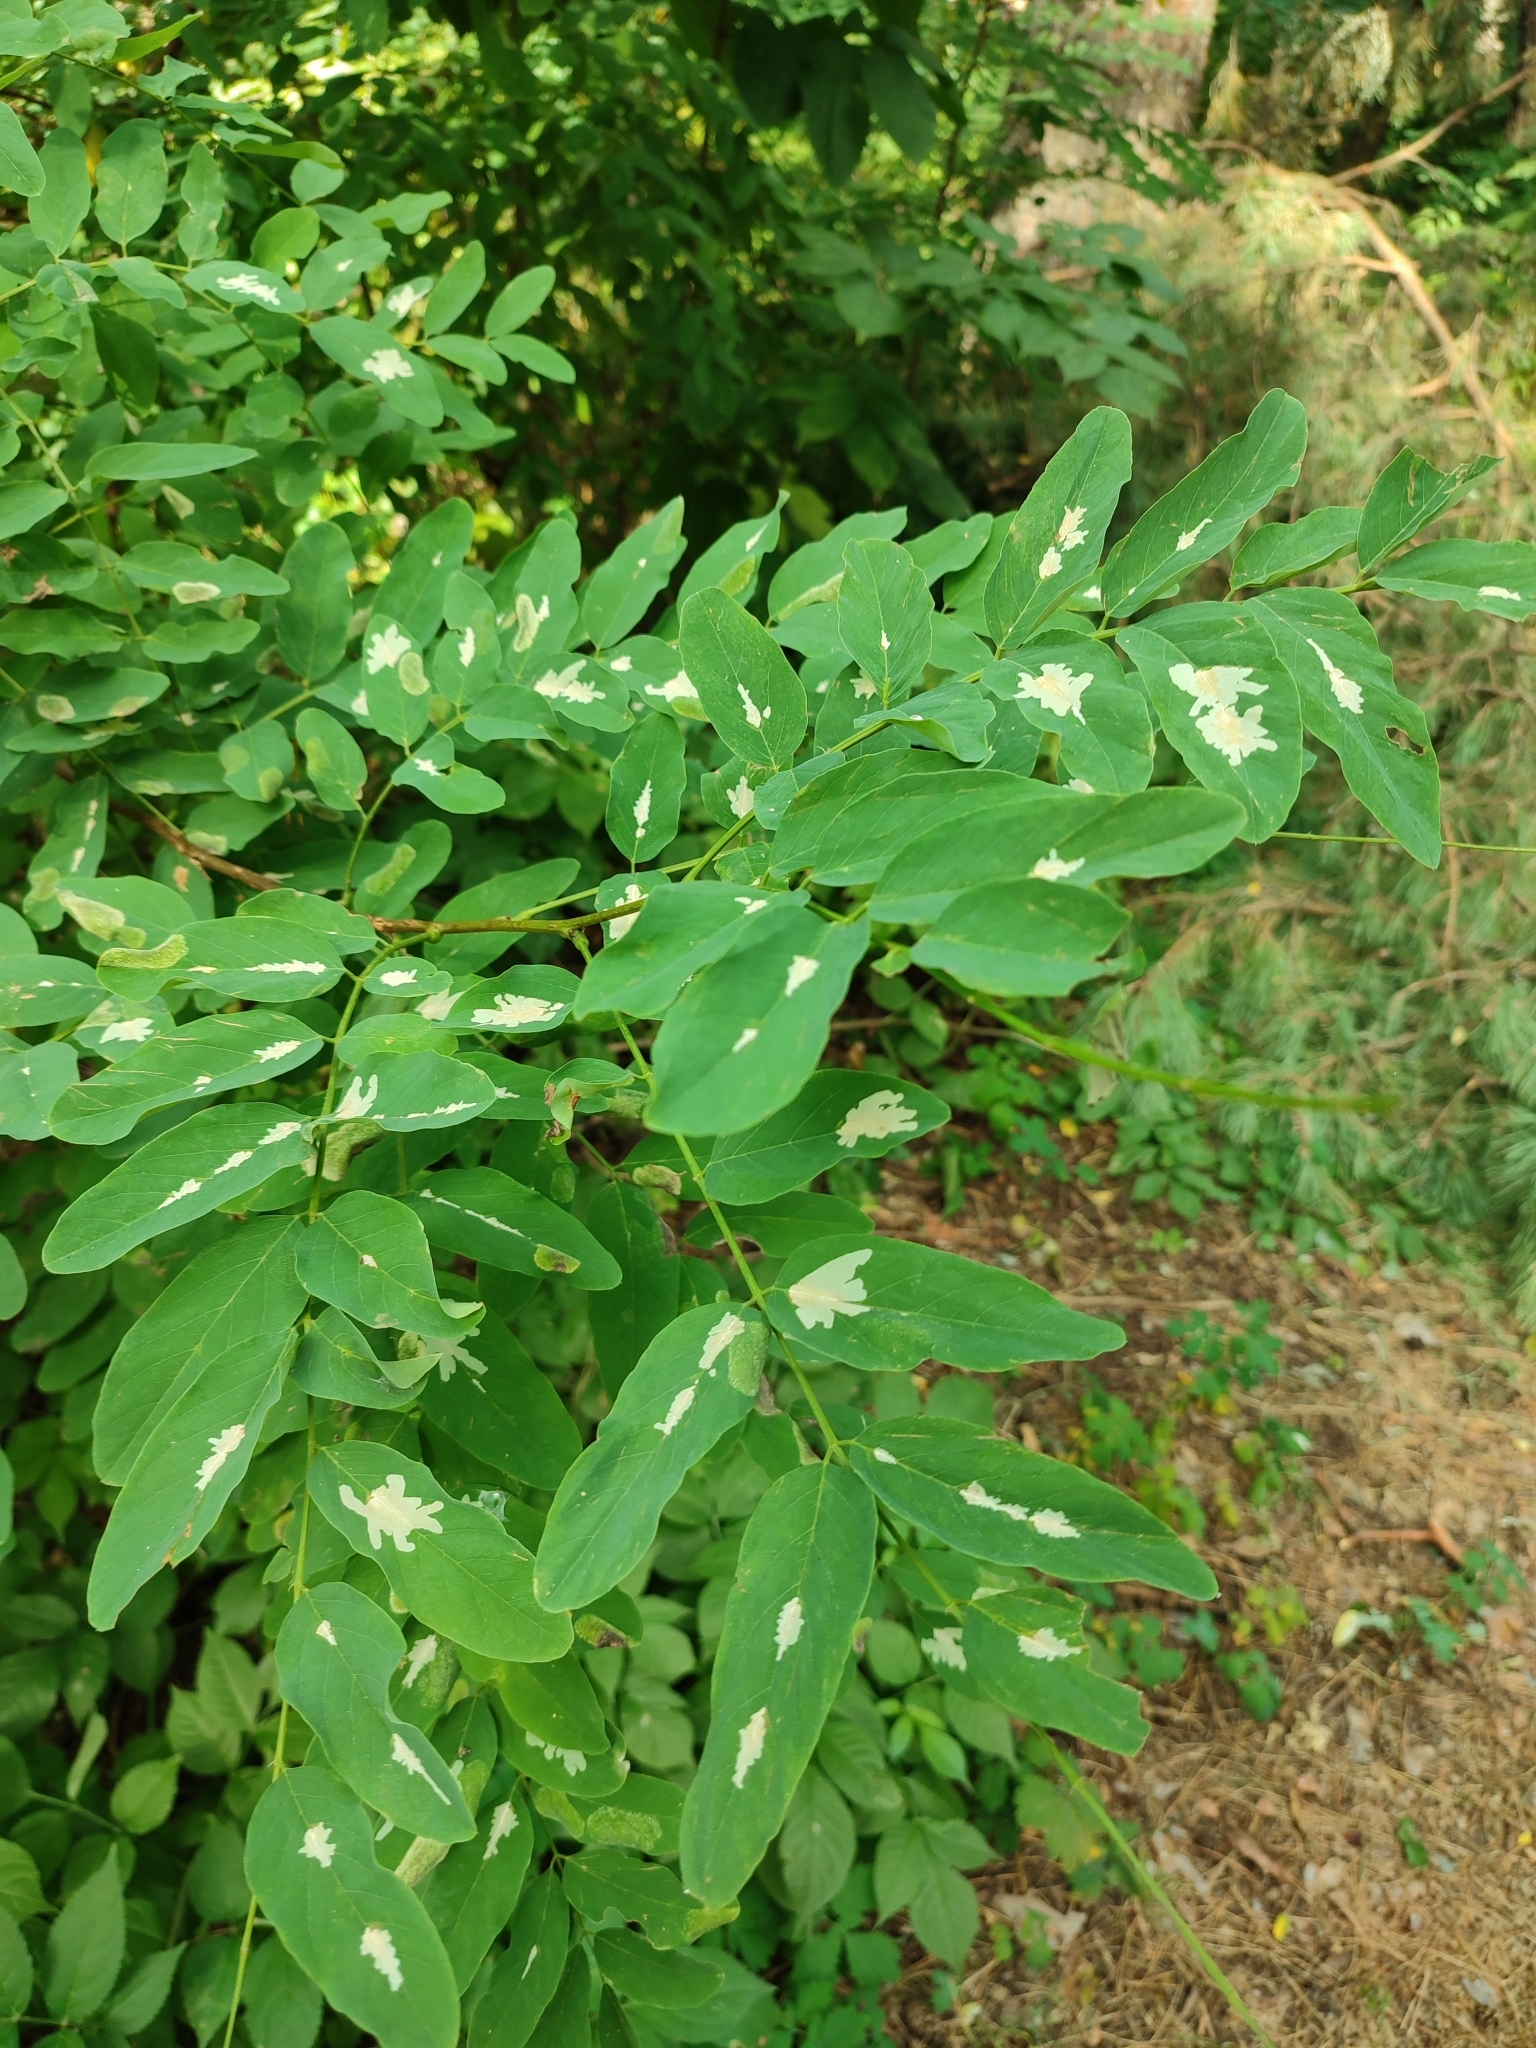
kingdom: Animalia
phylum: Arthropoda
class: Insecta
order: Lepidoptera
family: Gracillariidae
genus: Parectopa
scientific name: Parectopa robiniella
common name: Locust digitate leafminer
